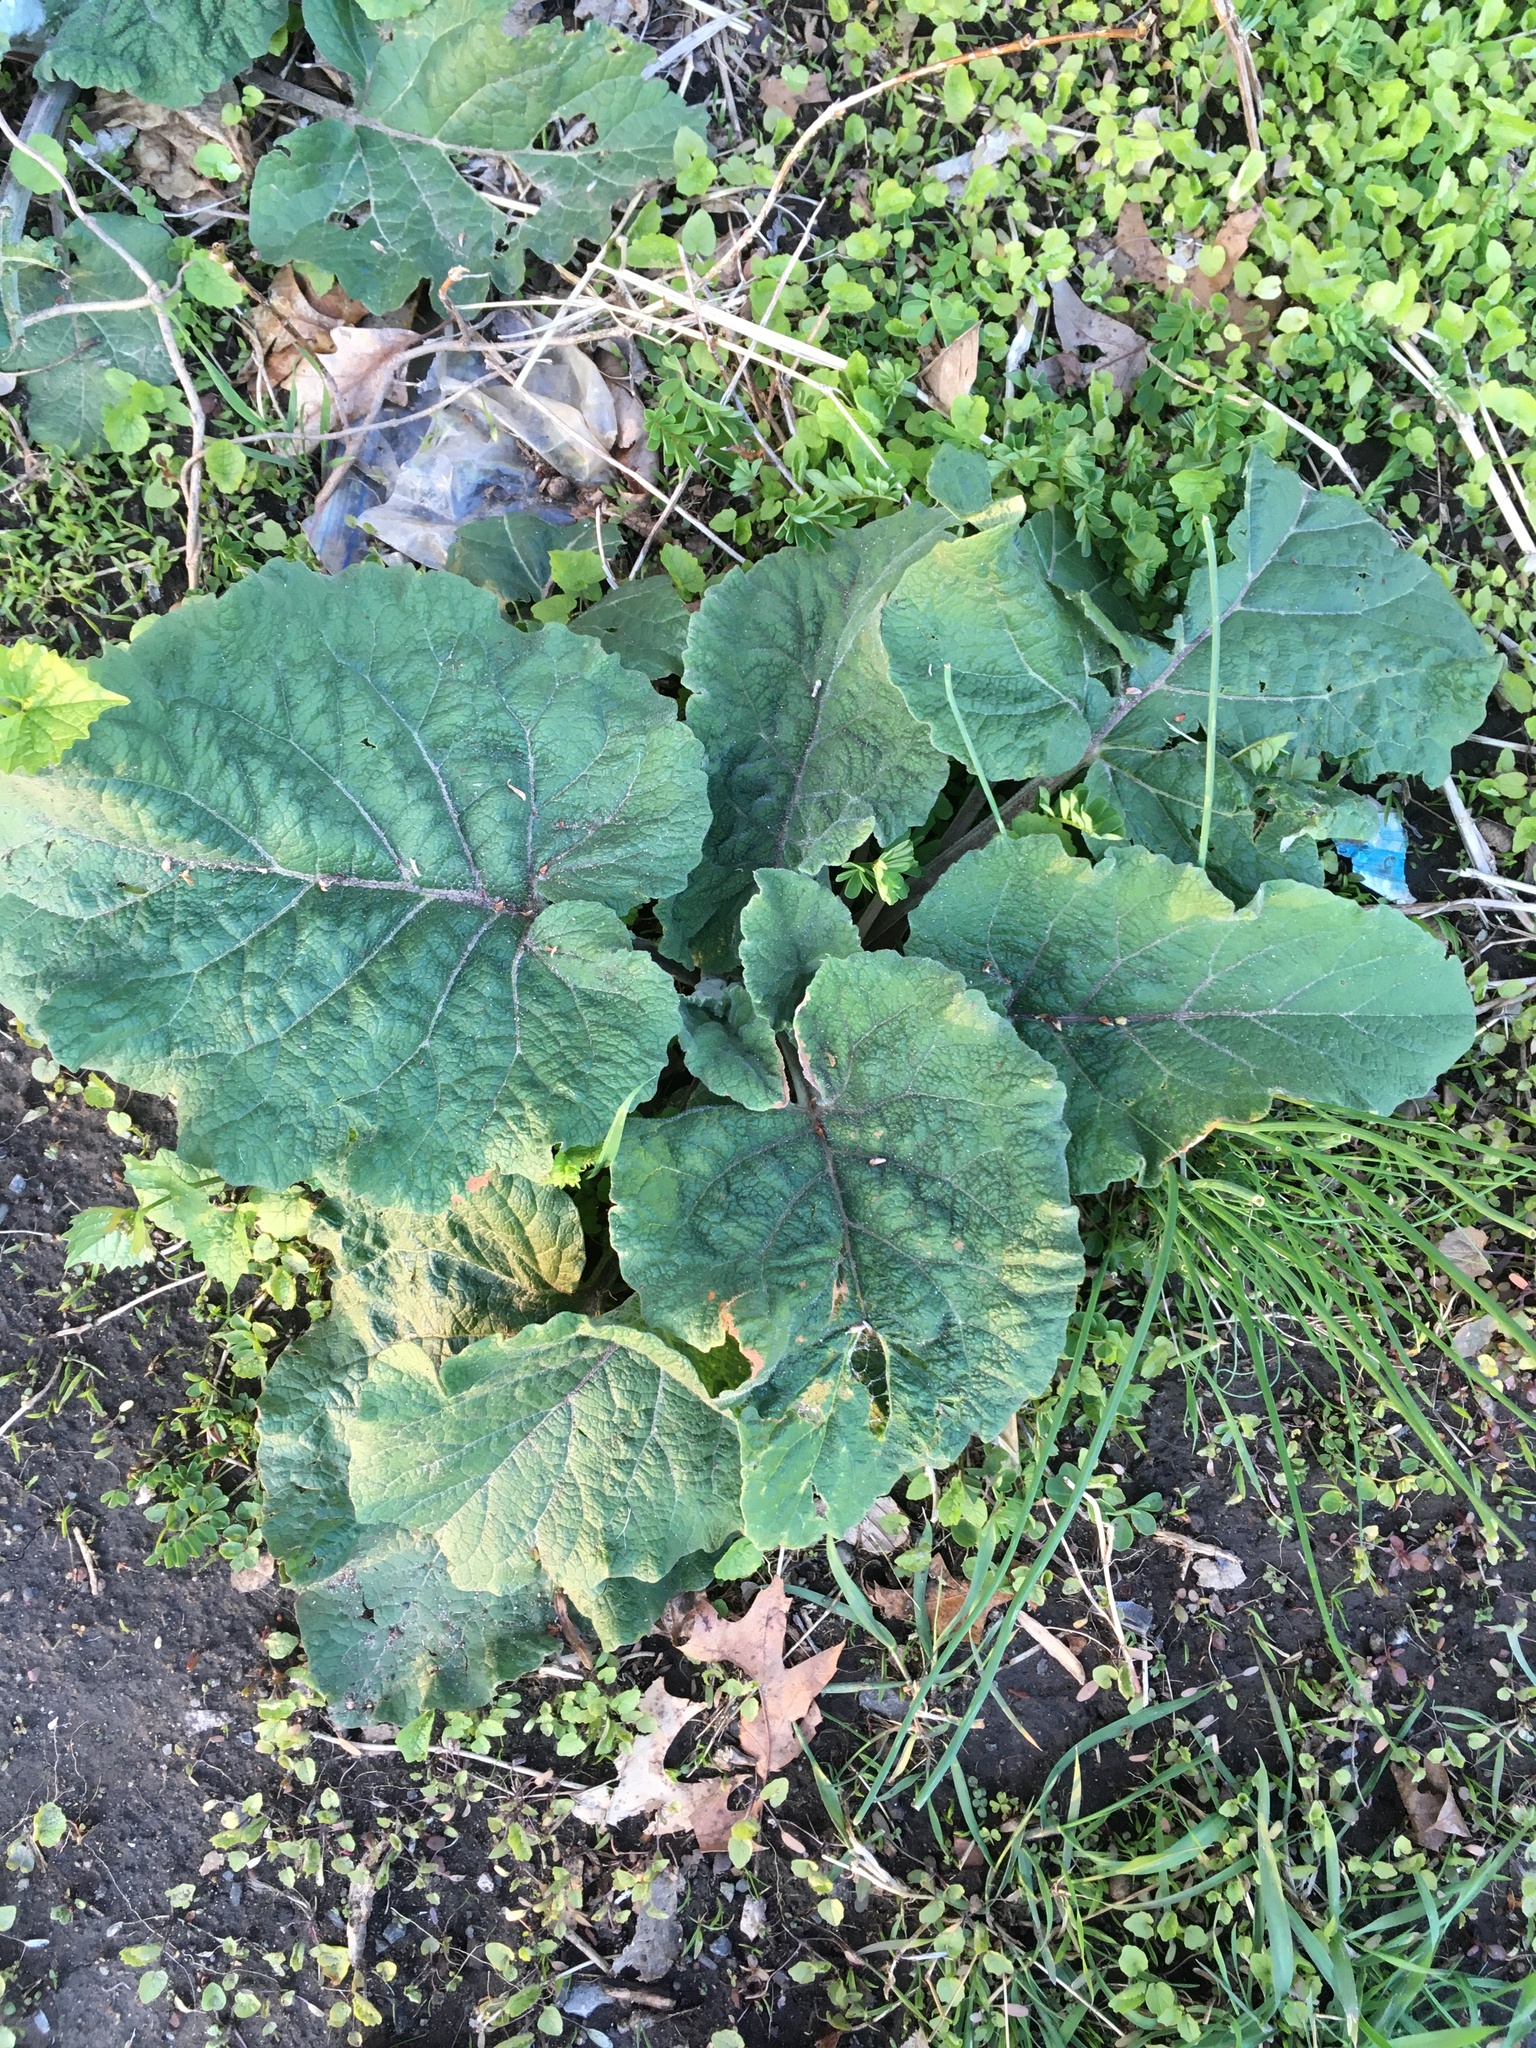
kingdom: Plantae
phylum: Tracheophyta
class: Magnoliopsida
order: Asterales
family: Asteraceae
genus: Arctium
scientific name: Arctium
